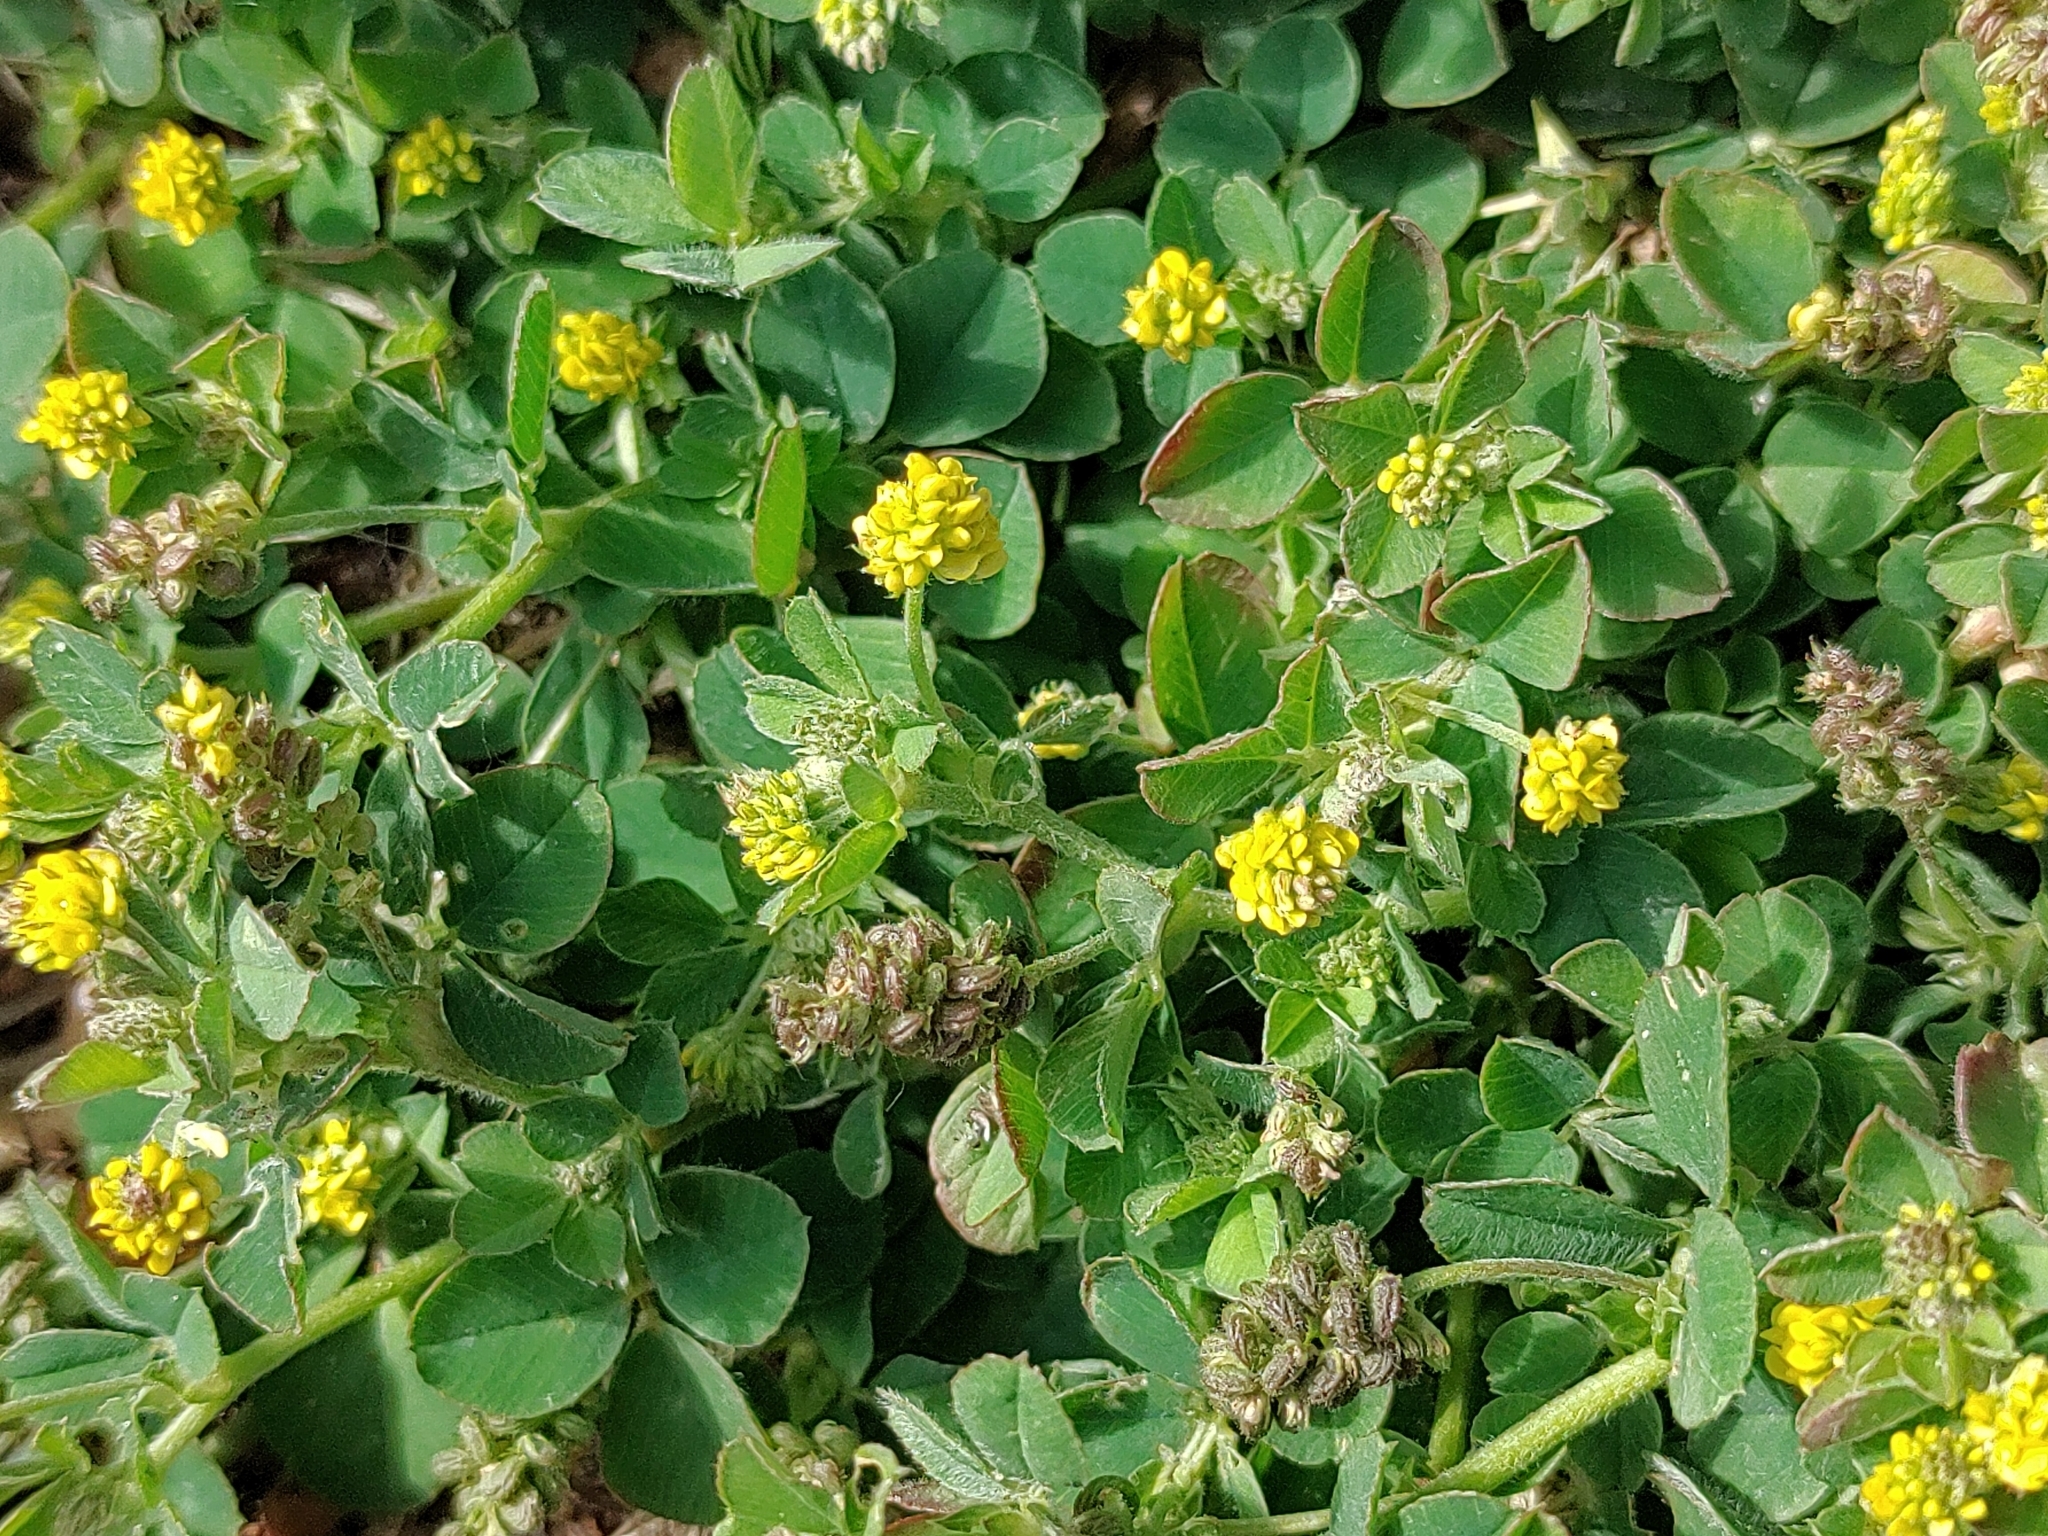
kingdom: Plantae
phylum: Tracheophyta
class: Magnoliopsida
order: Fabales
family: Fabaceae
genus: Medicago
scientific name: Medicago lupulina
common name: Black medick
